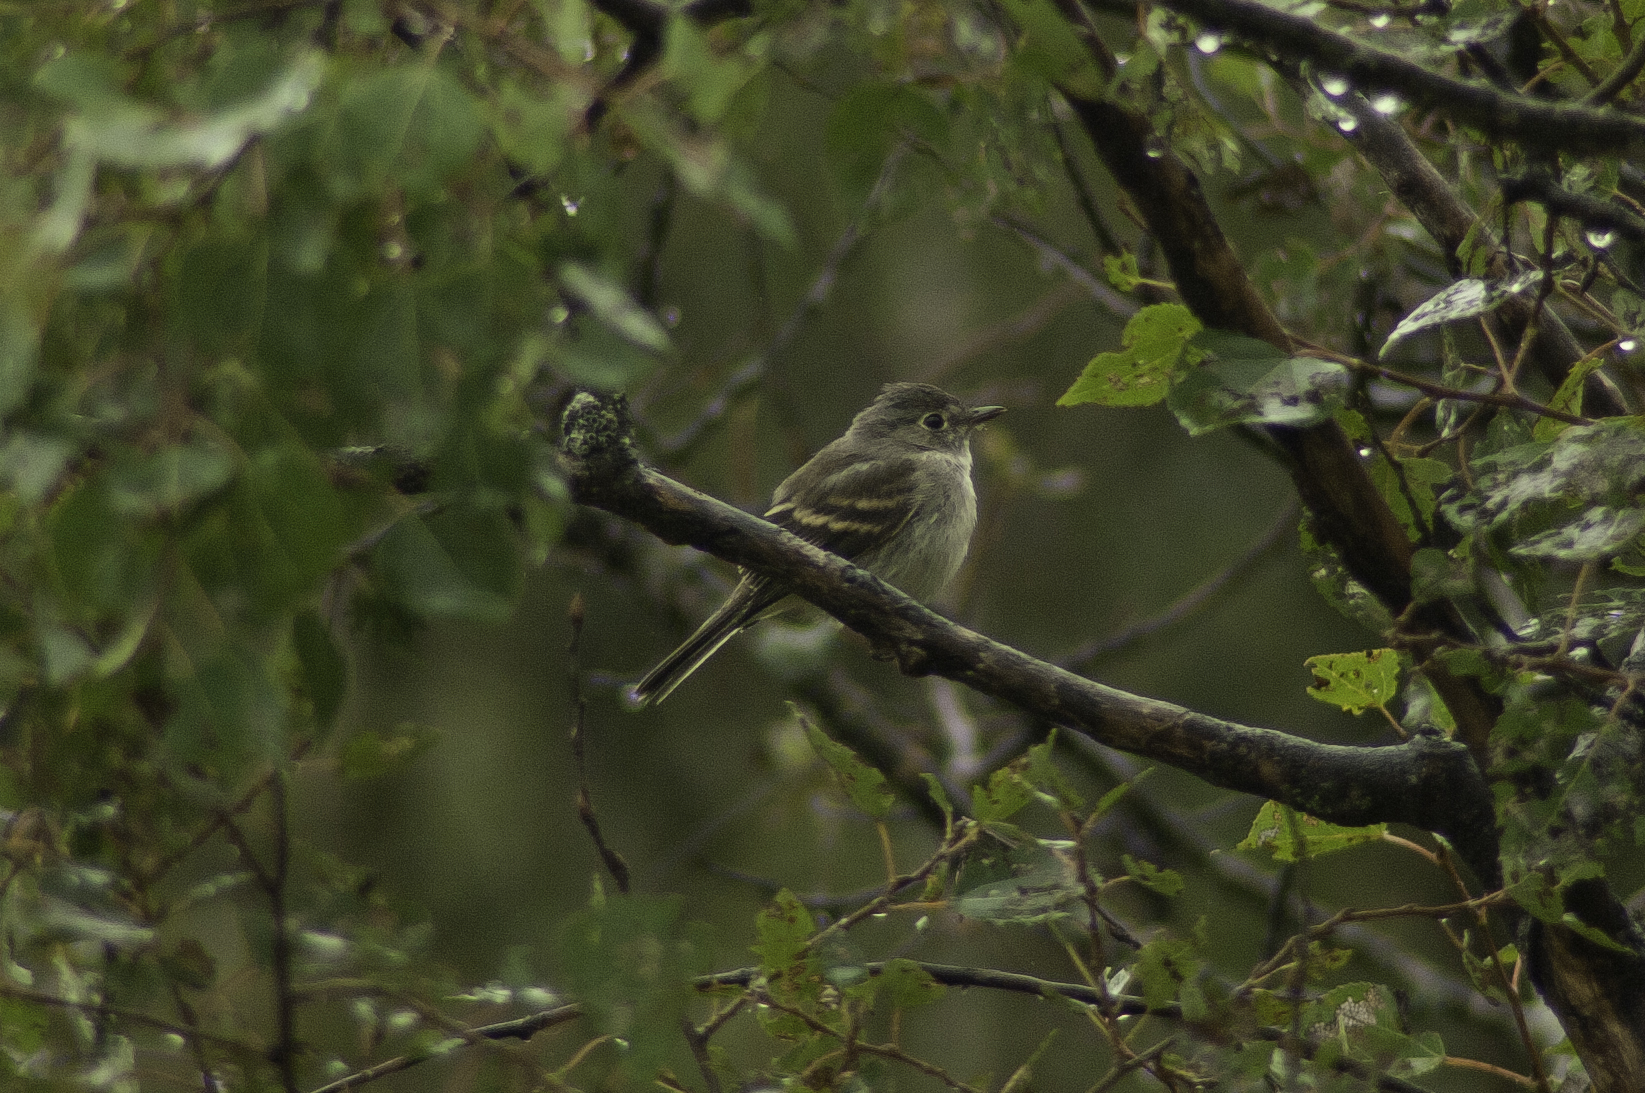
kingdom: Animalia
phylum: Chordata
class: Aves
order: Passeriformes
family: Tyrannidae
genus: Empidonax
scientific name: Empidonax minimus
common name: Least flycatcher
